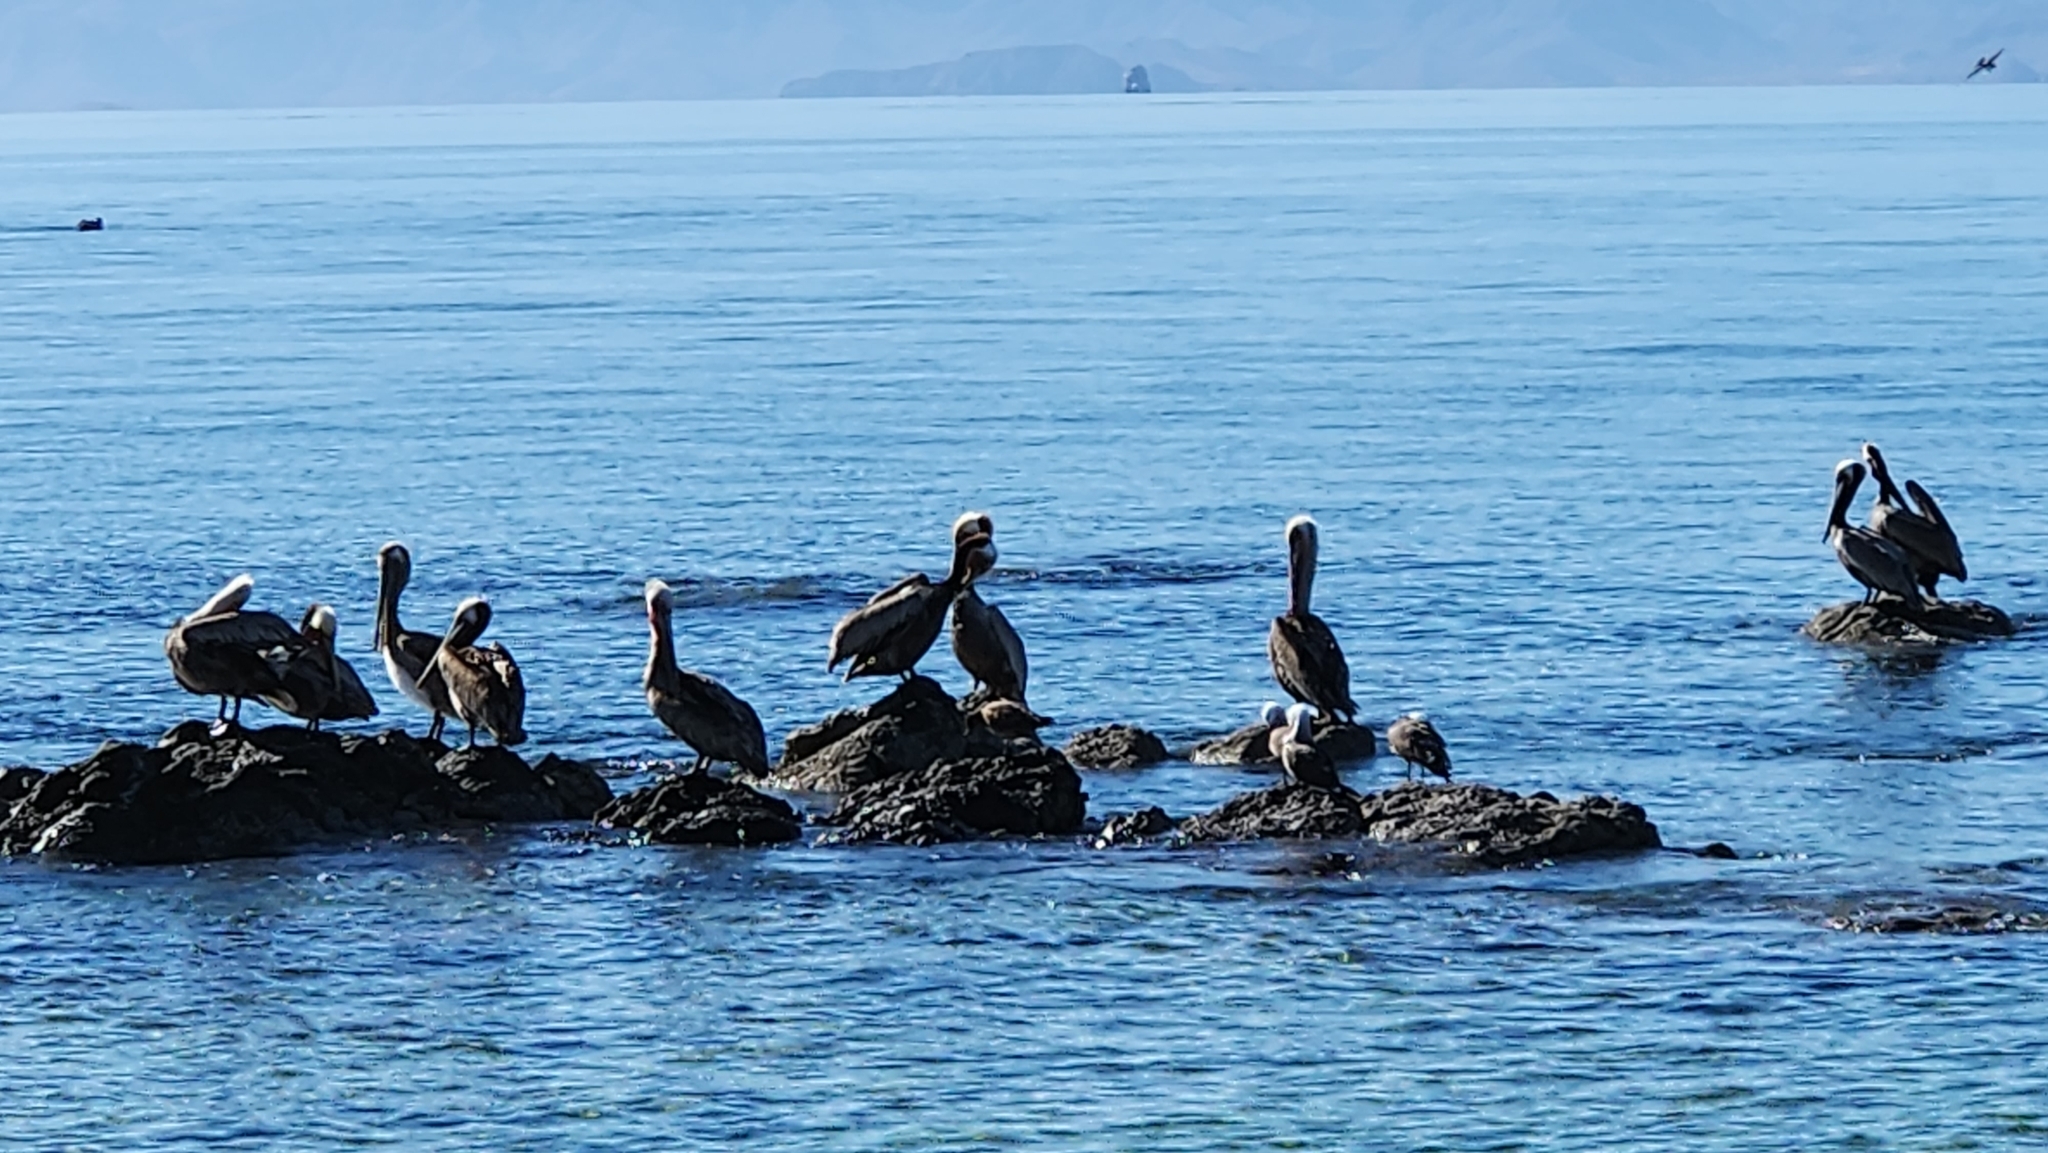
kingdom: Animalia
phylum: Chordata
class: Aves
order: Pelecaniformes
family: Pelecanidae
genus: Pelecanus
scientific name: Pelecanus occidentalis
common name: Brown pelican
